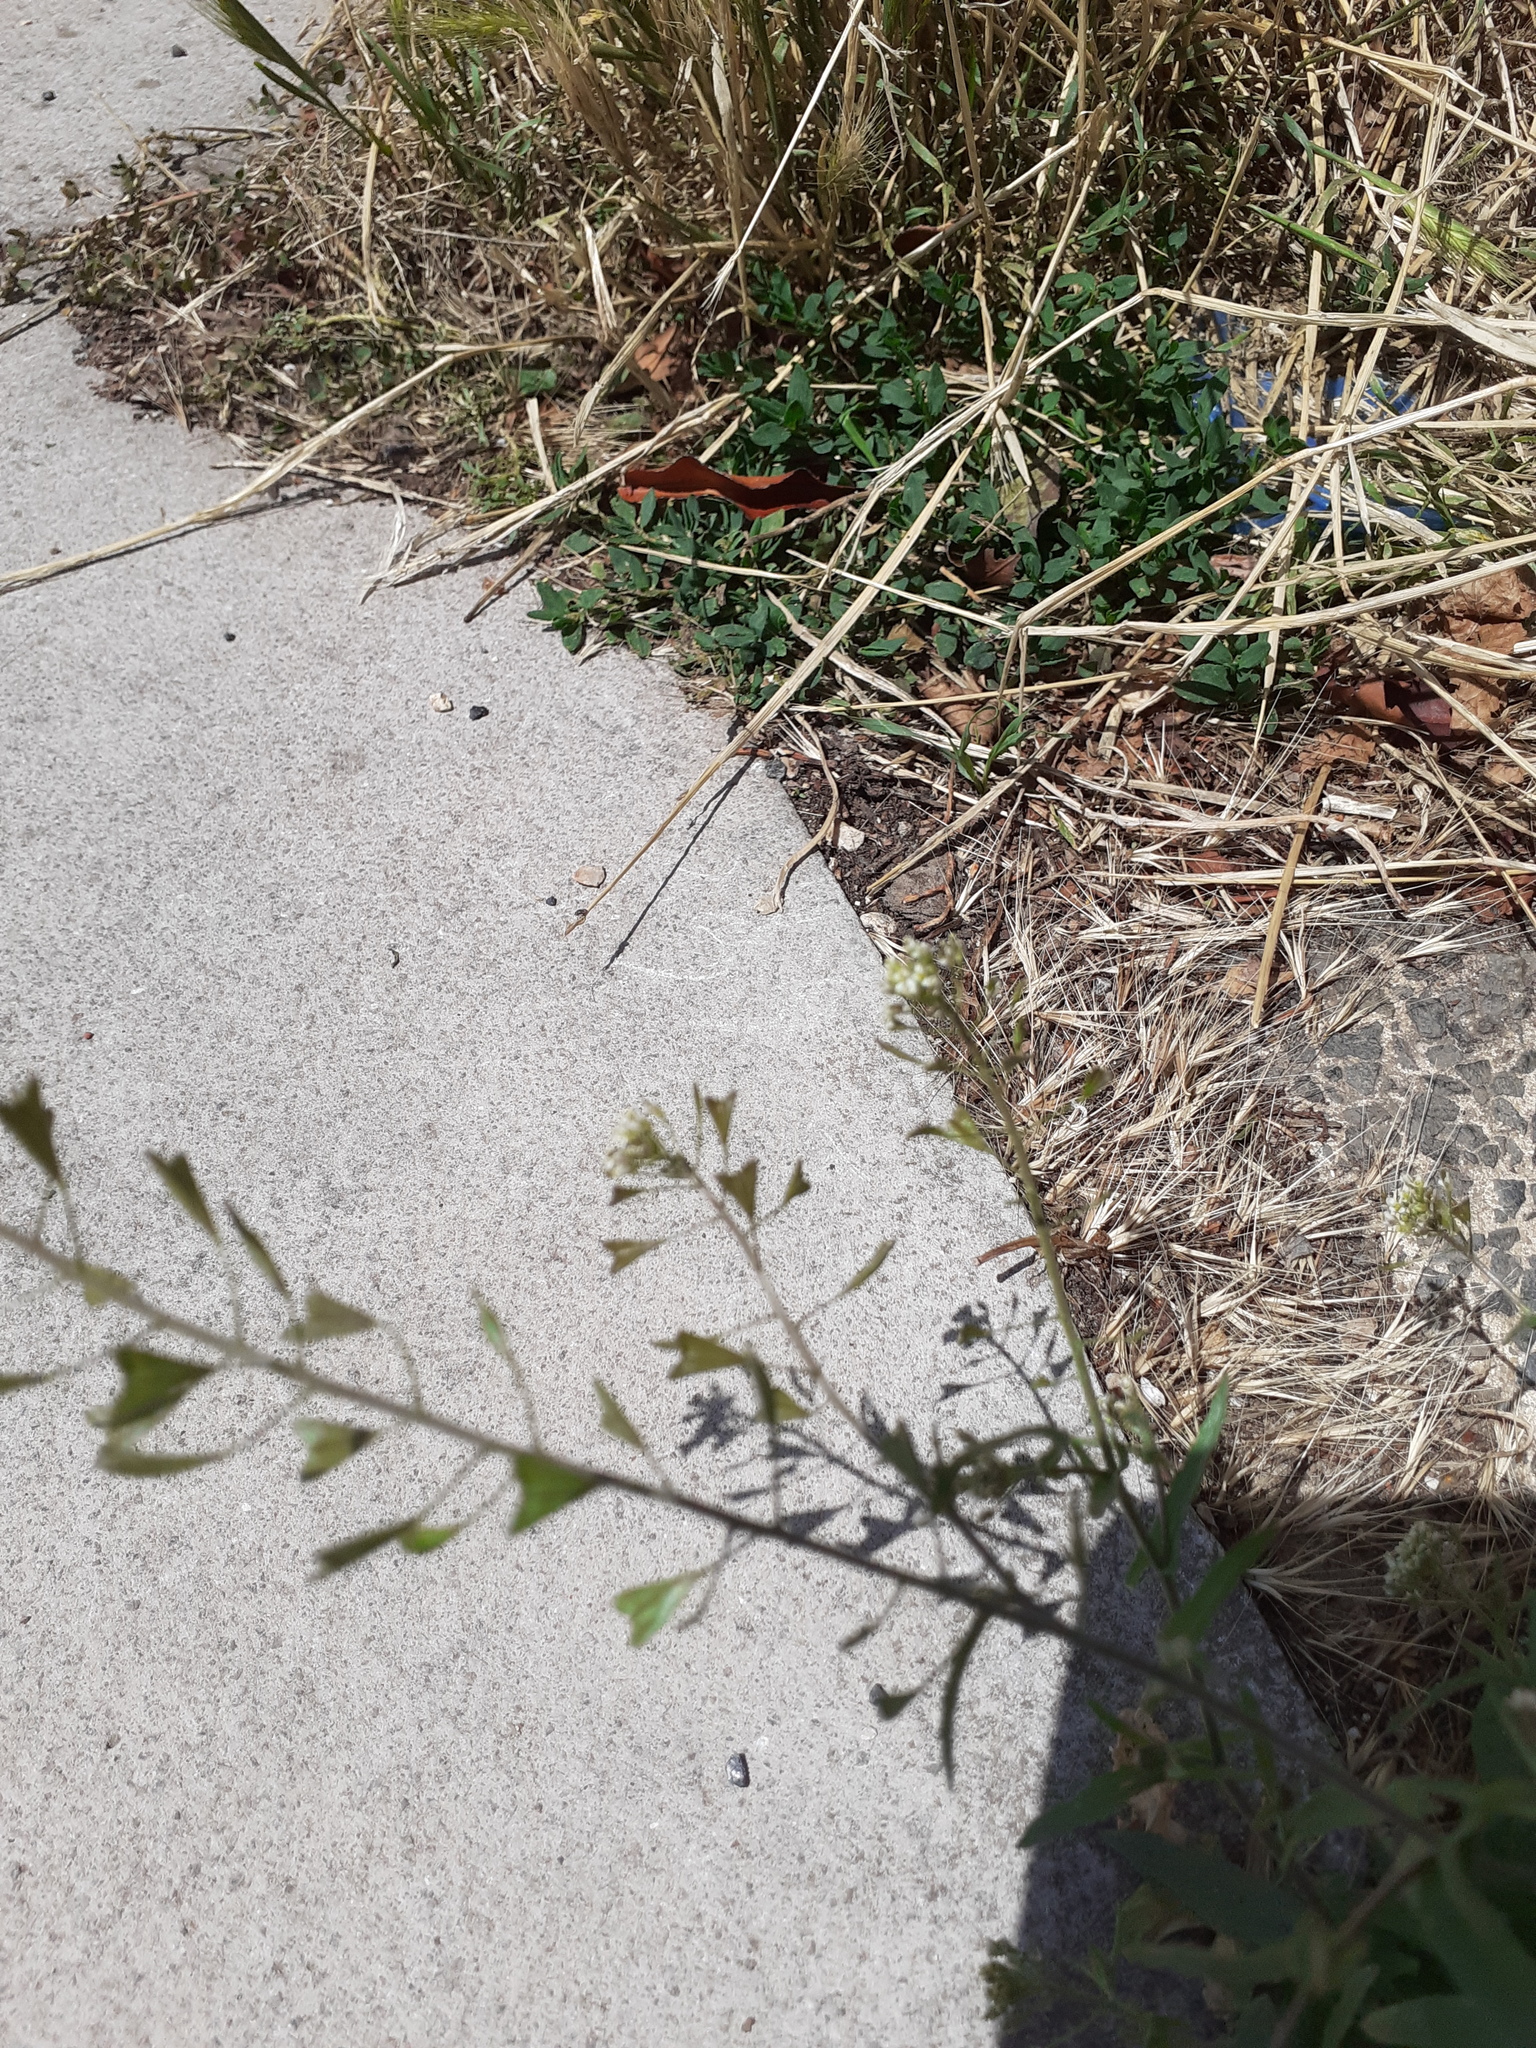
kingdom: Plantae
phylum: Tracheophyta
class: Magnoliopsida
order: Brassicales
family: Brassicaceae
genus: Capsella
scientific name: Capsella bursa-pastoris
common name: Shepherd's purse
